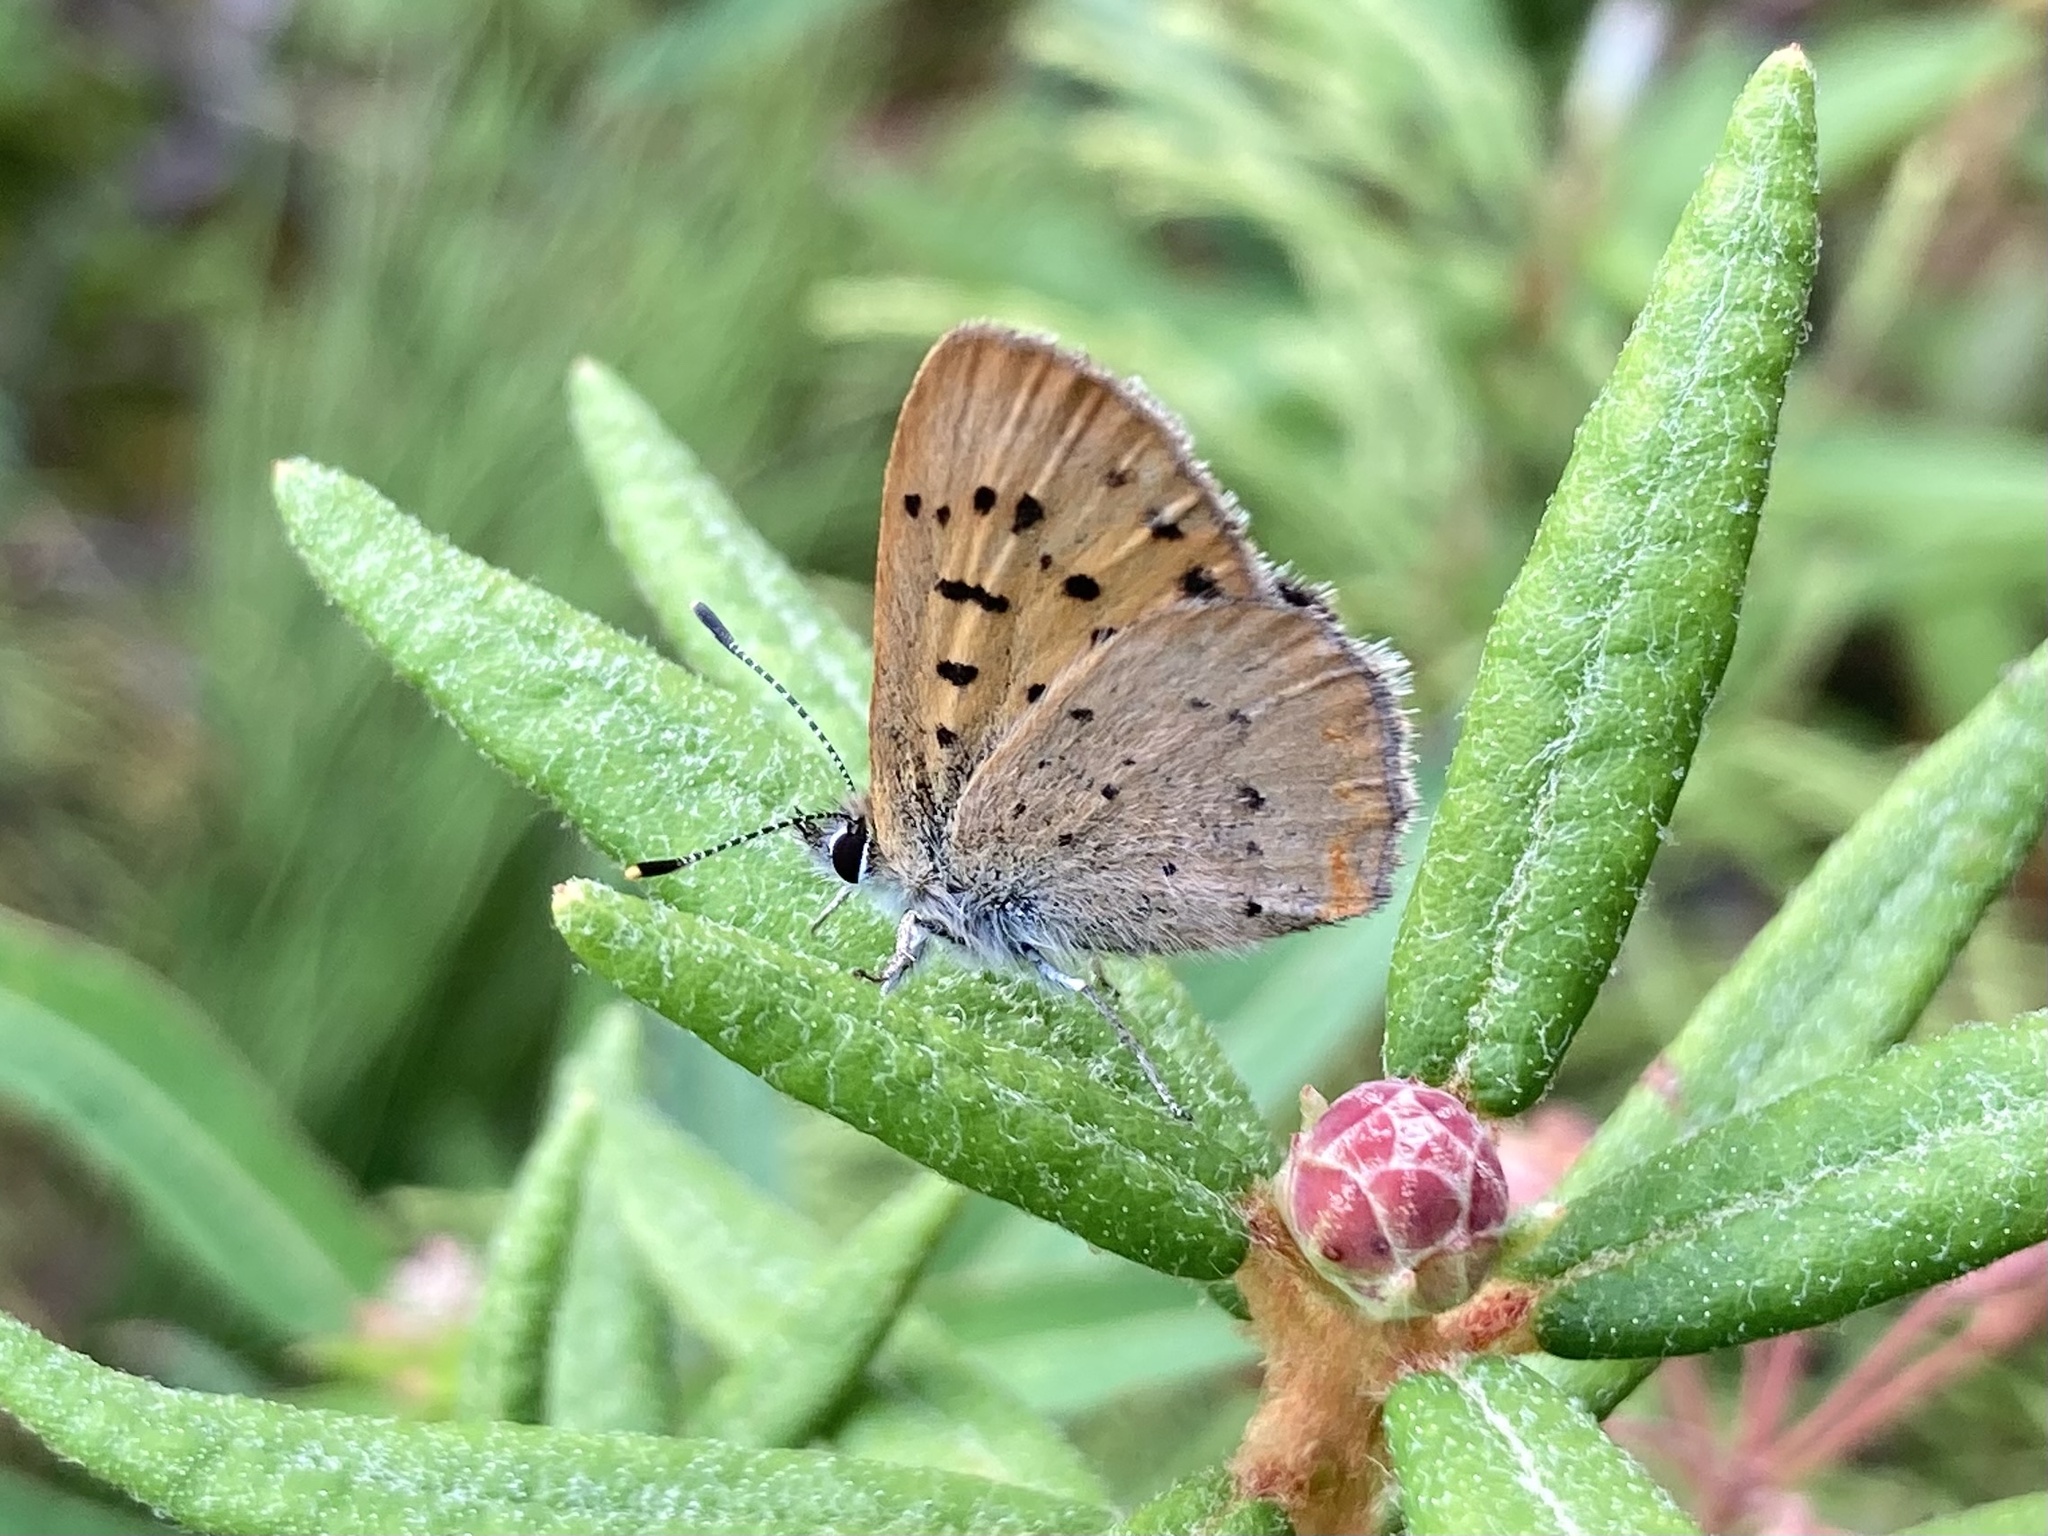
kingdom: Animalia
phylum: Arthropoda
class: Insecta
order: Lepidoptera
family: Lycaenidae
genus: Tharsalea
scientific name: Tharsalea dorcas
